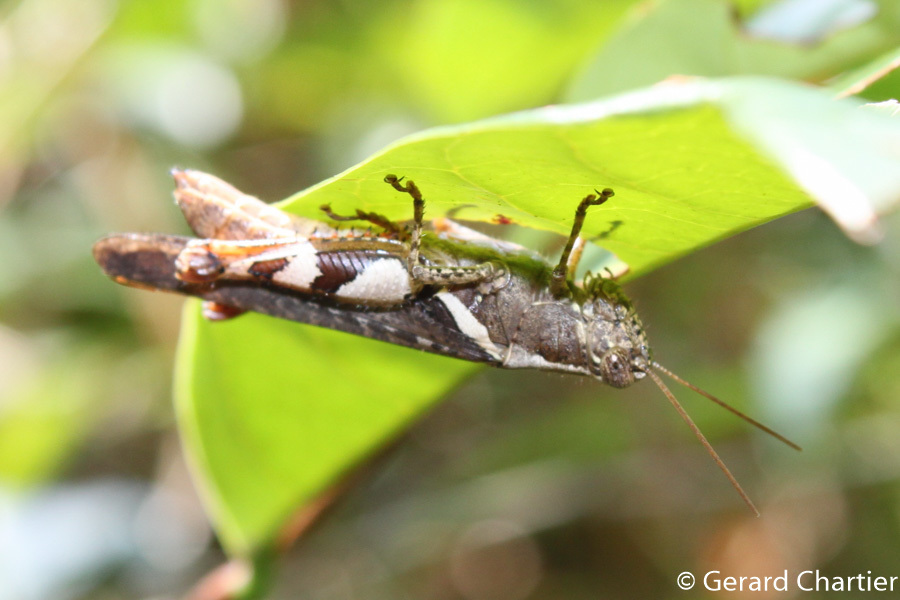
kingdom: Animalia
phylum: Arthropoda
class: Insecta
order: Orthoptera
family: Acrididae
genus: Xenocatantops
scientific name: Xenocatantops humile
